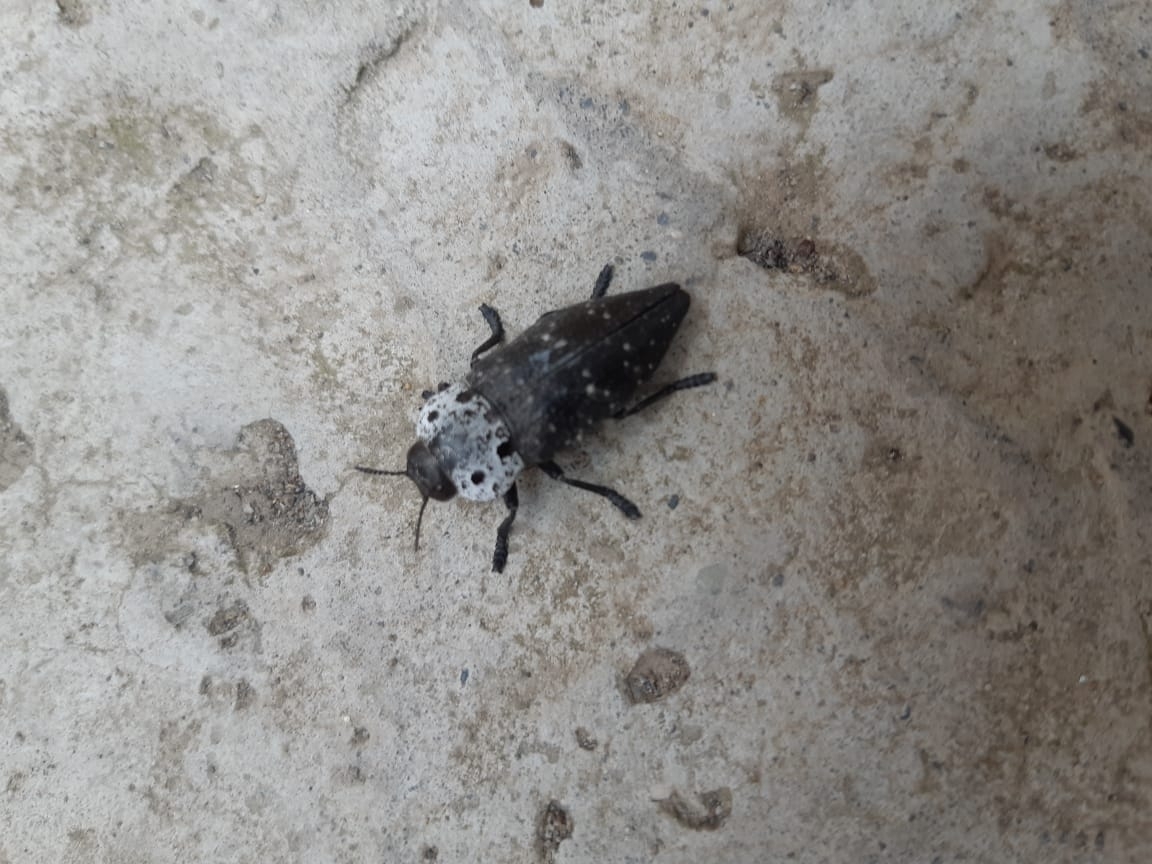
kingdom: Animalia
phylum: Arthropoda
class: Insecta
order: Coleoptera
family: Buprestidae
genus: Capnodis
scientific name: Capnodis tenebrionis
